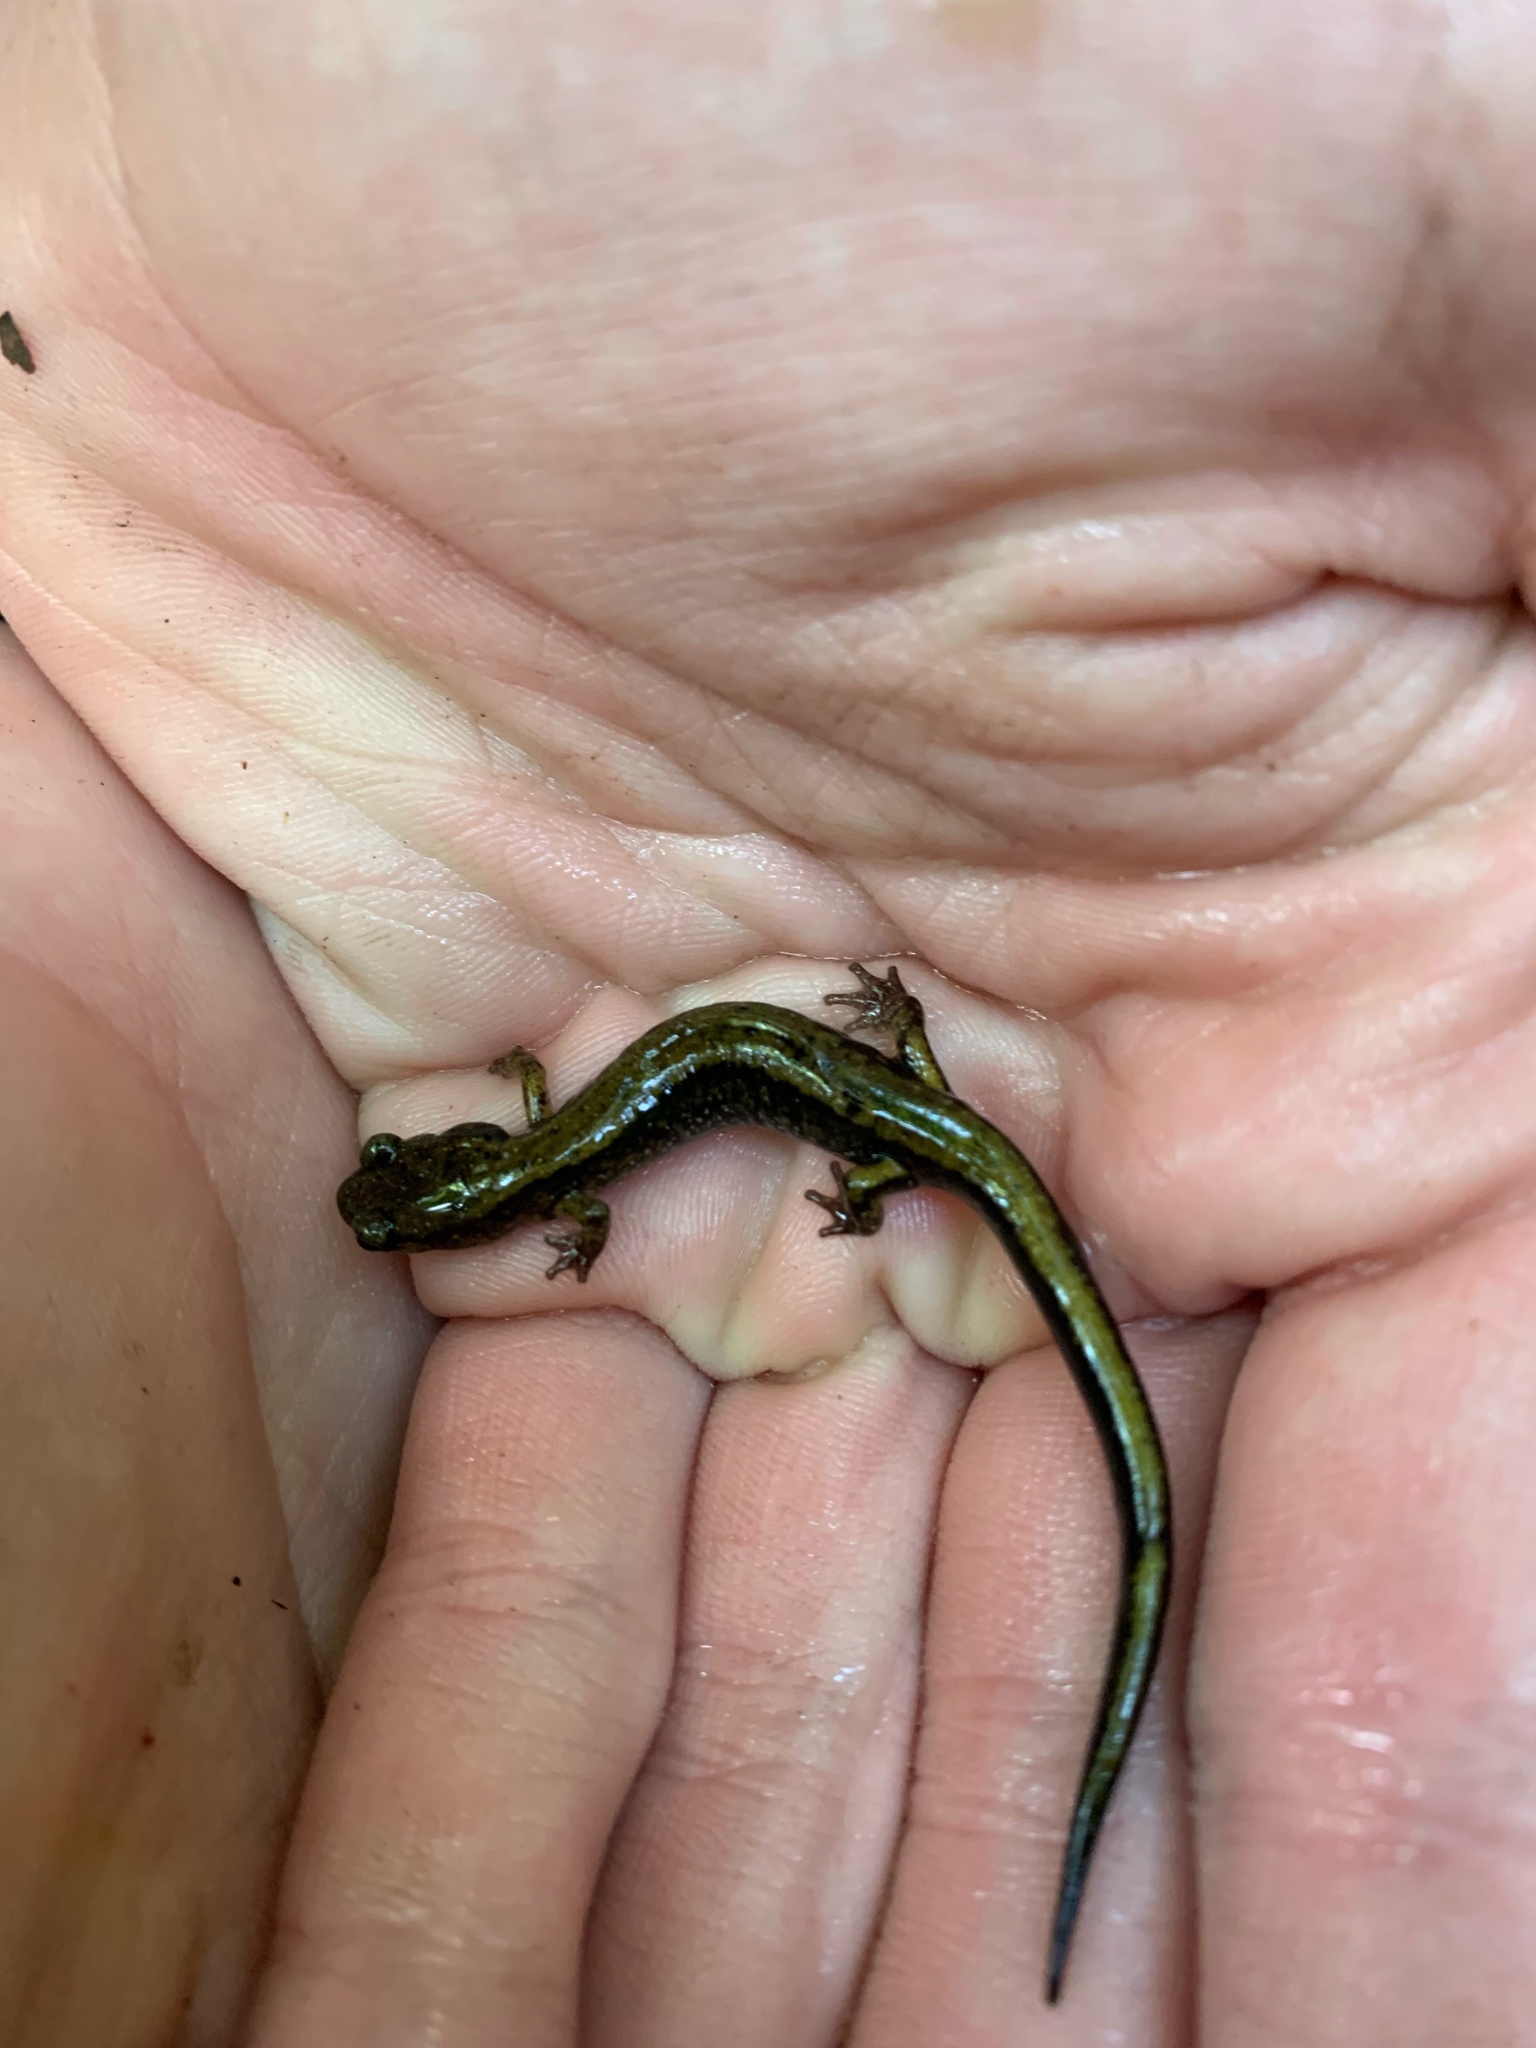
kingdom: Animalia
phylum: Chordata
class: Amphibia
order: Caudata
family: Plethodontidae
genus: Plethodon
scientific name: Plethodon dunni
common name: Dunn's salamander
